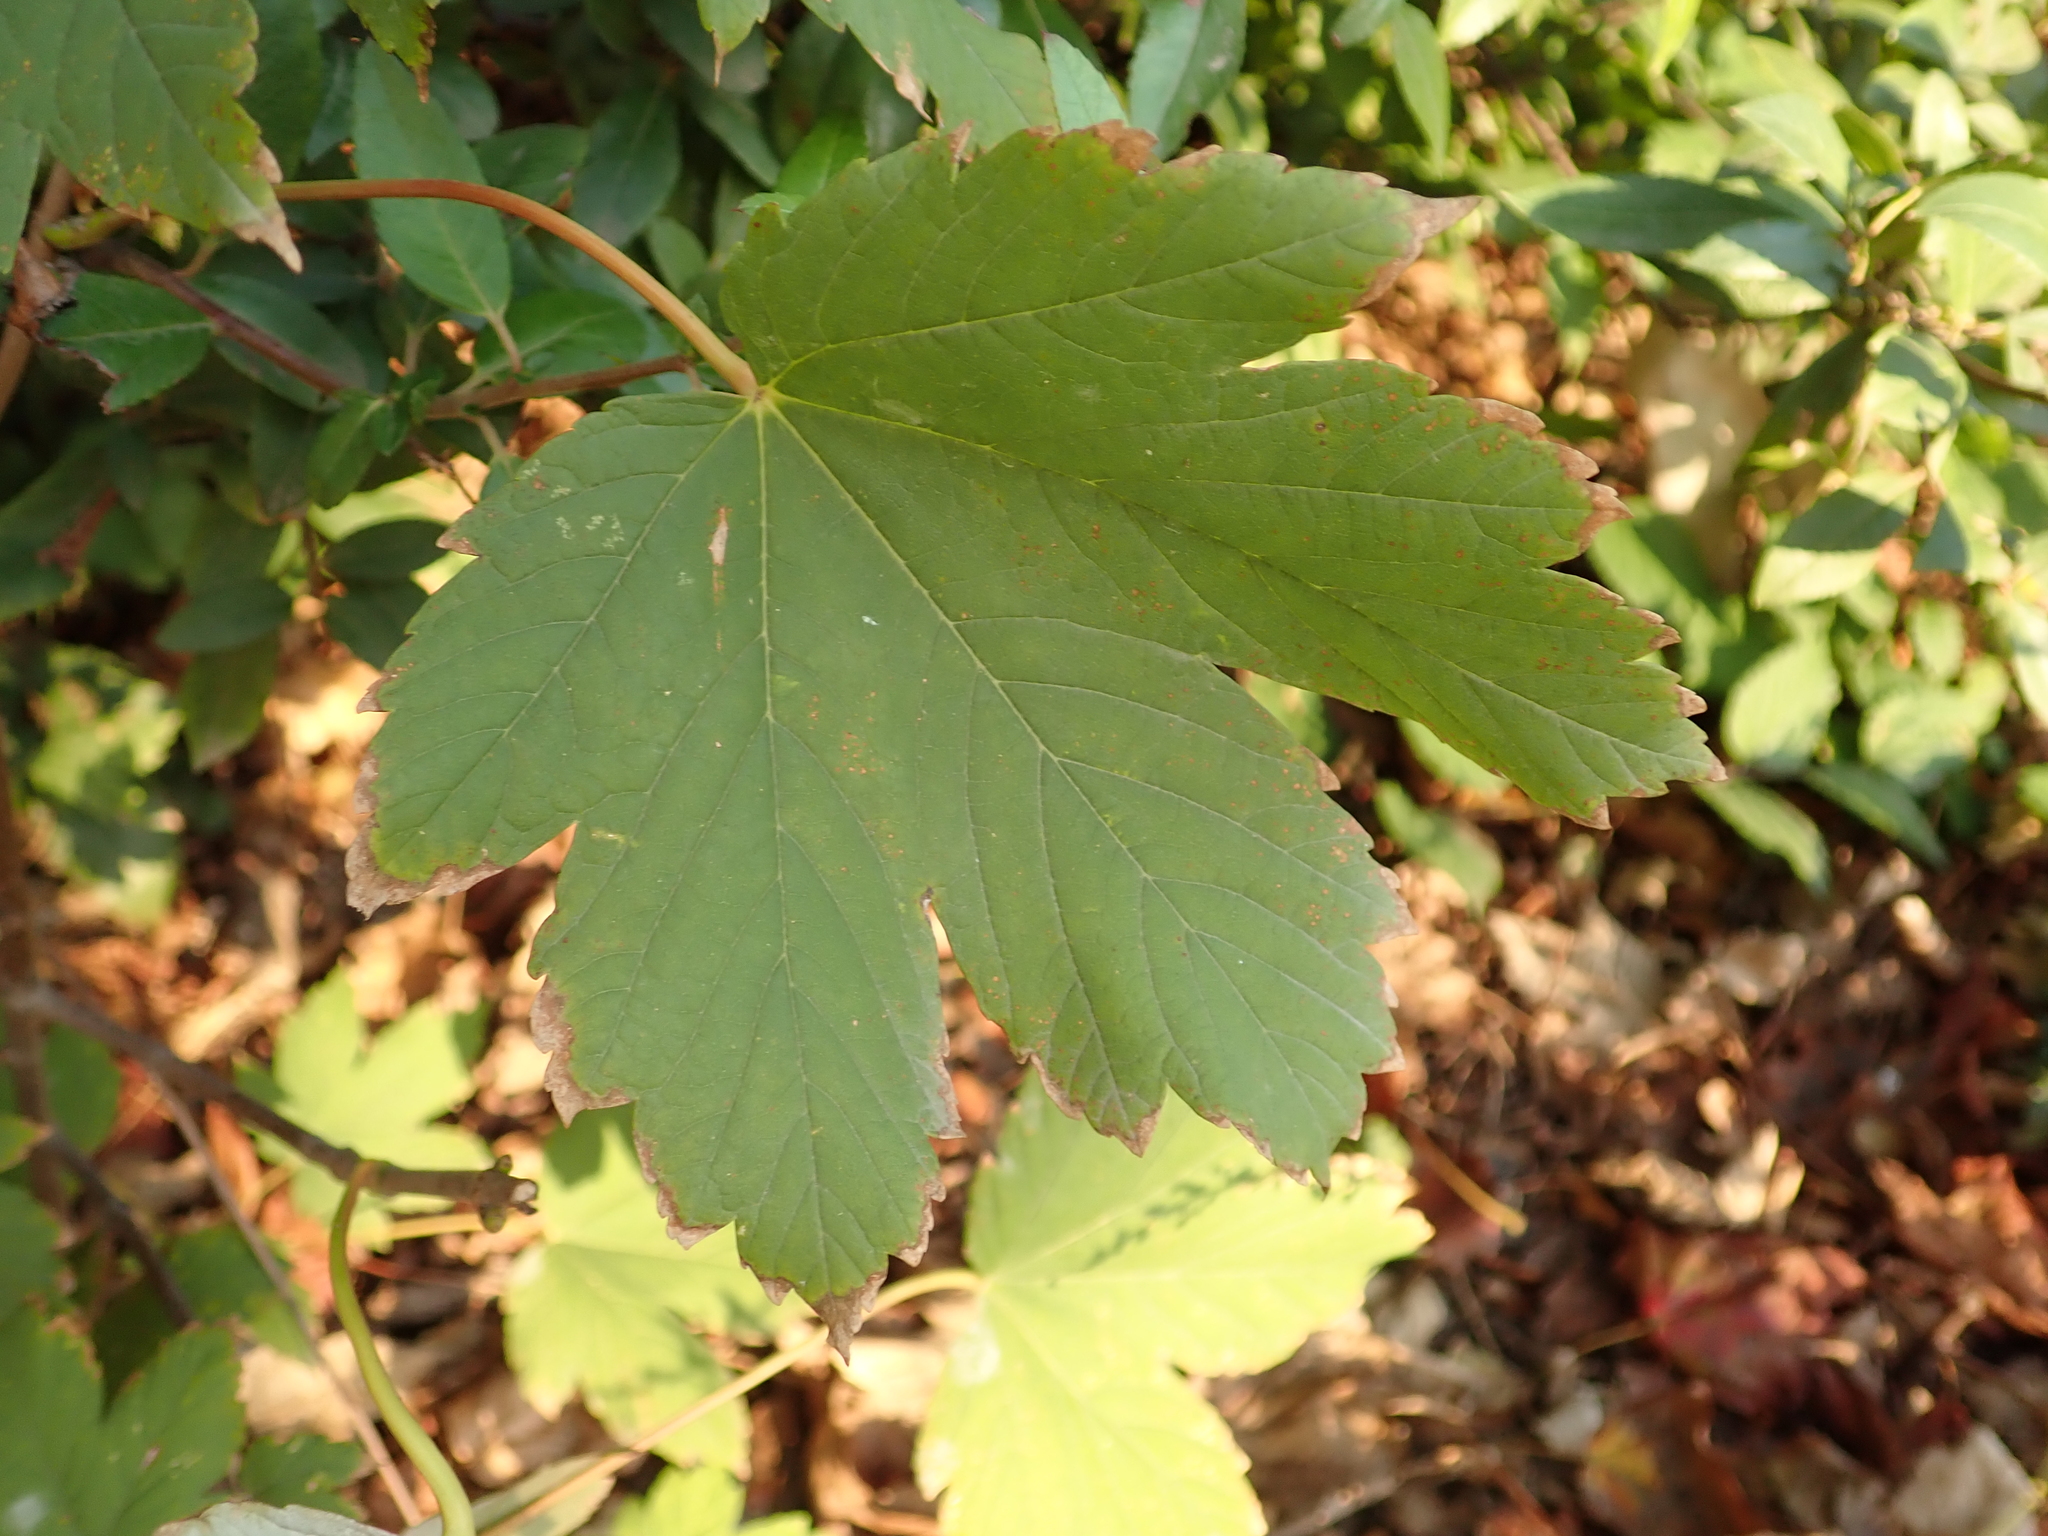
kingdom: Plantae
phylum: Tracheophyta
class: Magnoliopsida
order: Sapindales
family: Sapindaceae
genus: Acer
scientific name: Acer pseudoplatanus
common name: Sycamore
